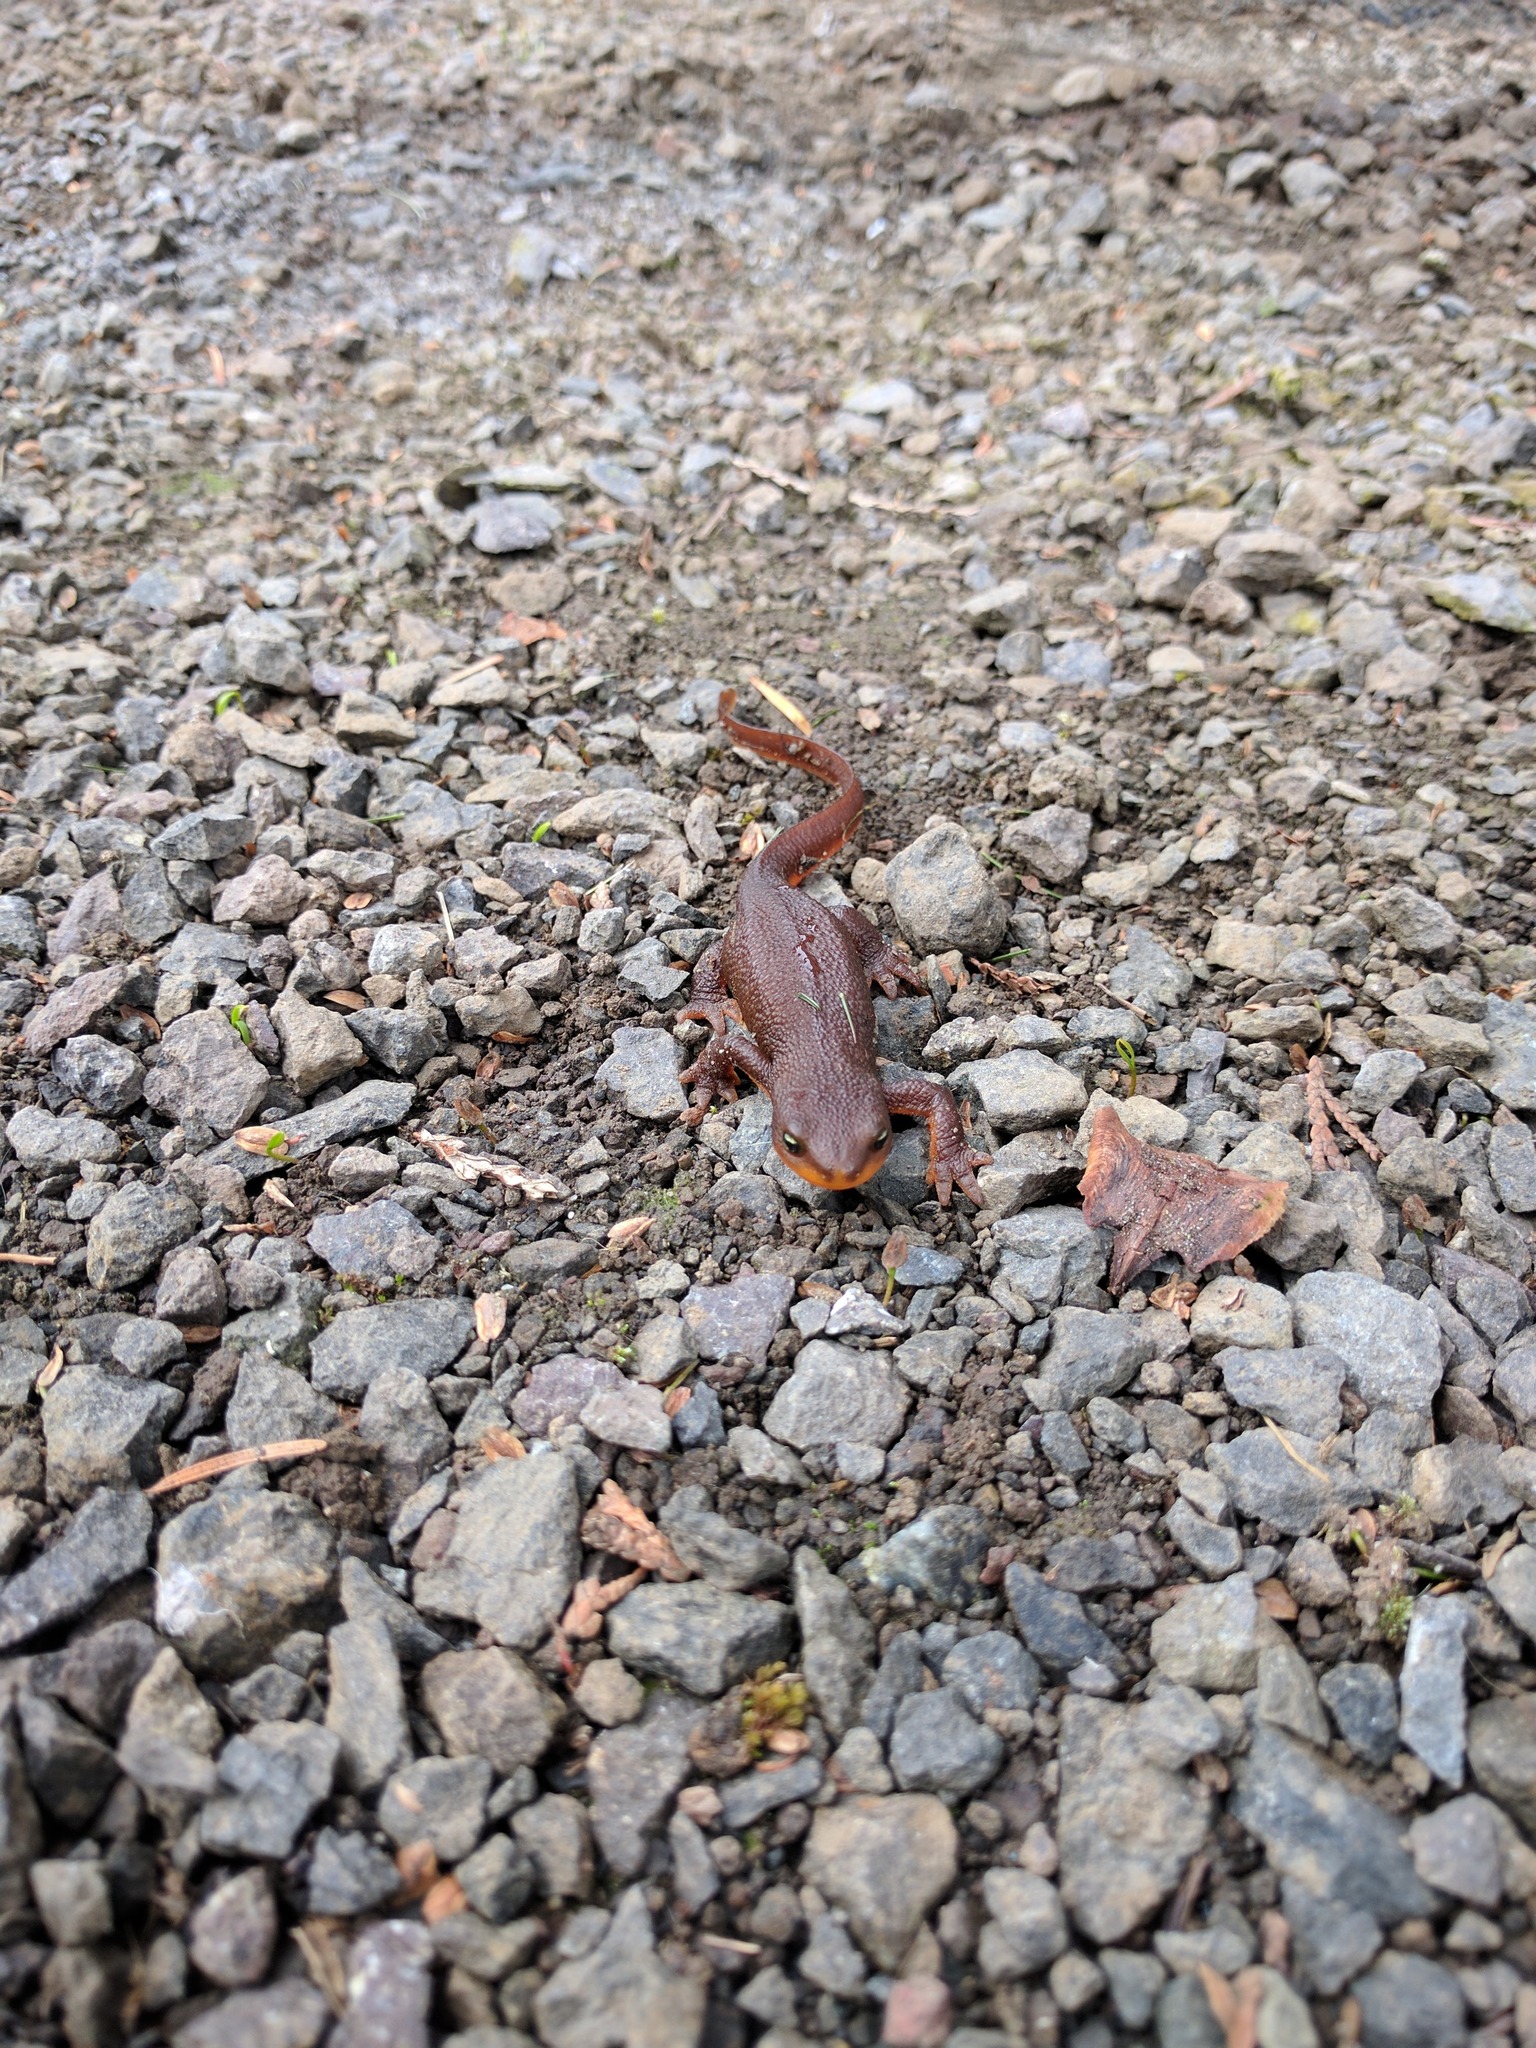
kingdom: Animalia
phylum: Chordata
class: Amphibia
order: Caudata
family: Salamandridae
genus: Taricha
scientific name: Taricha granulosa
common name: Roughskin newt
